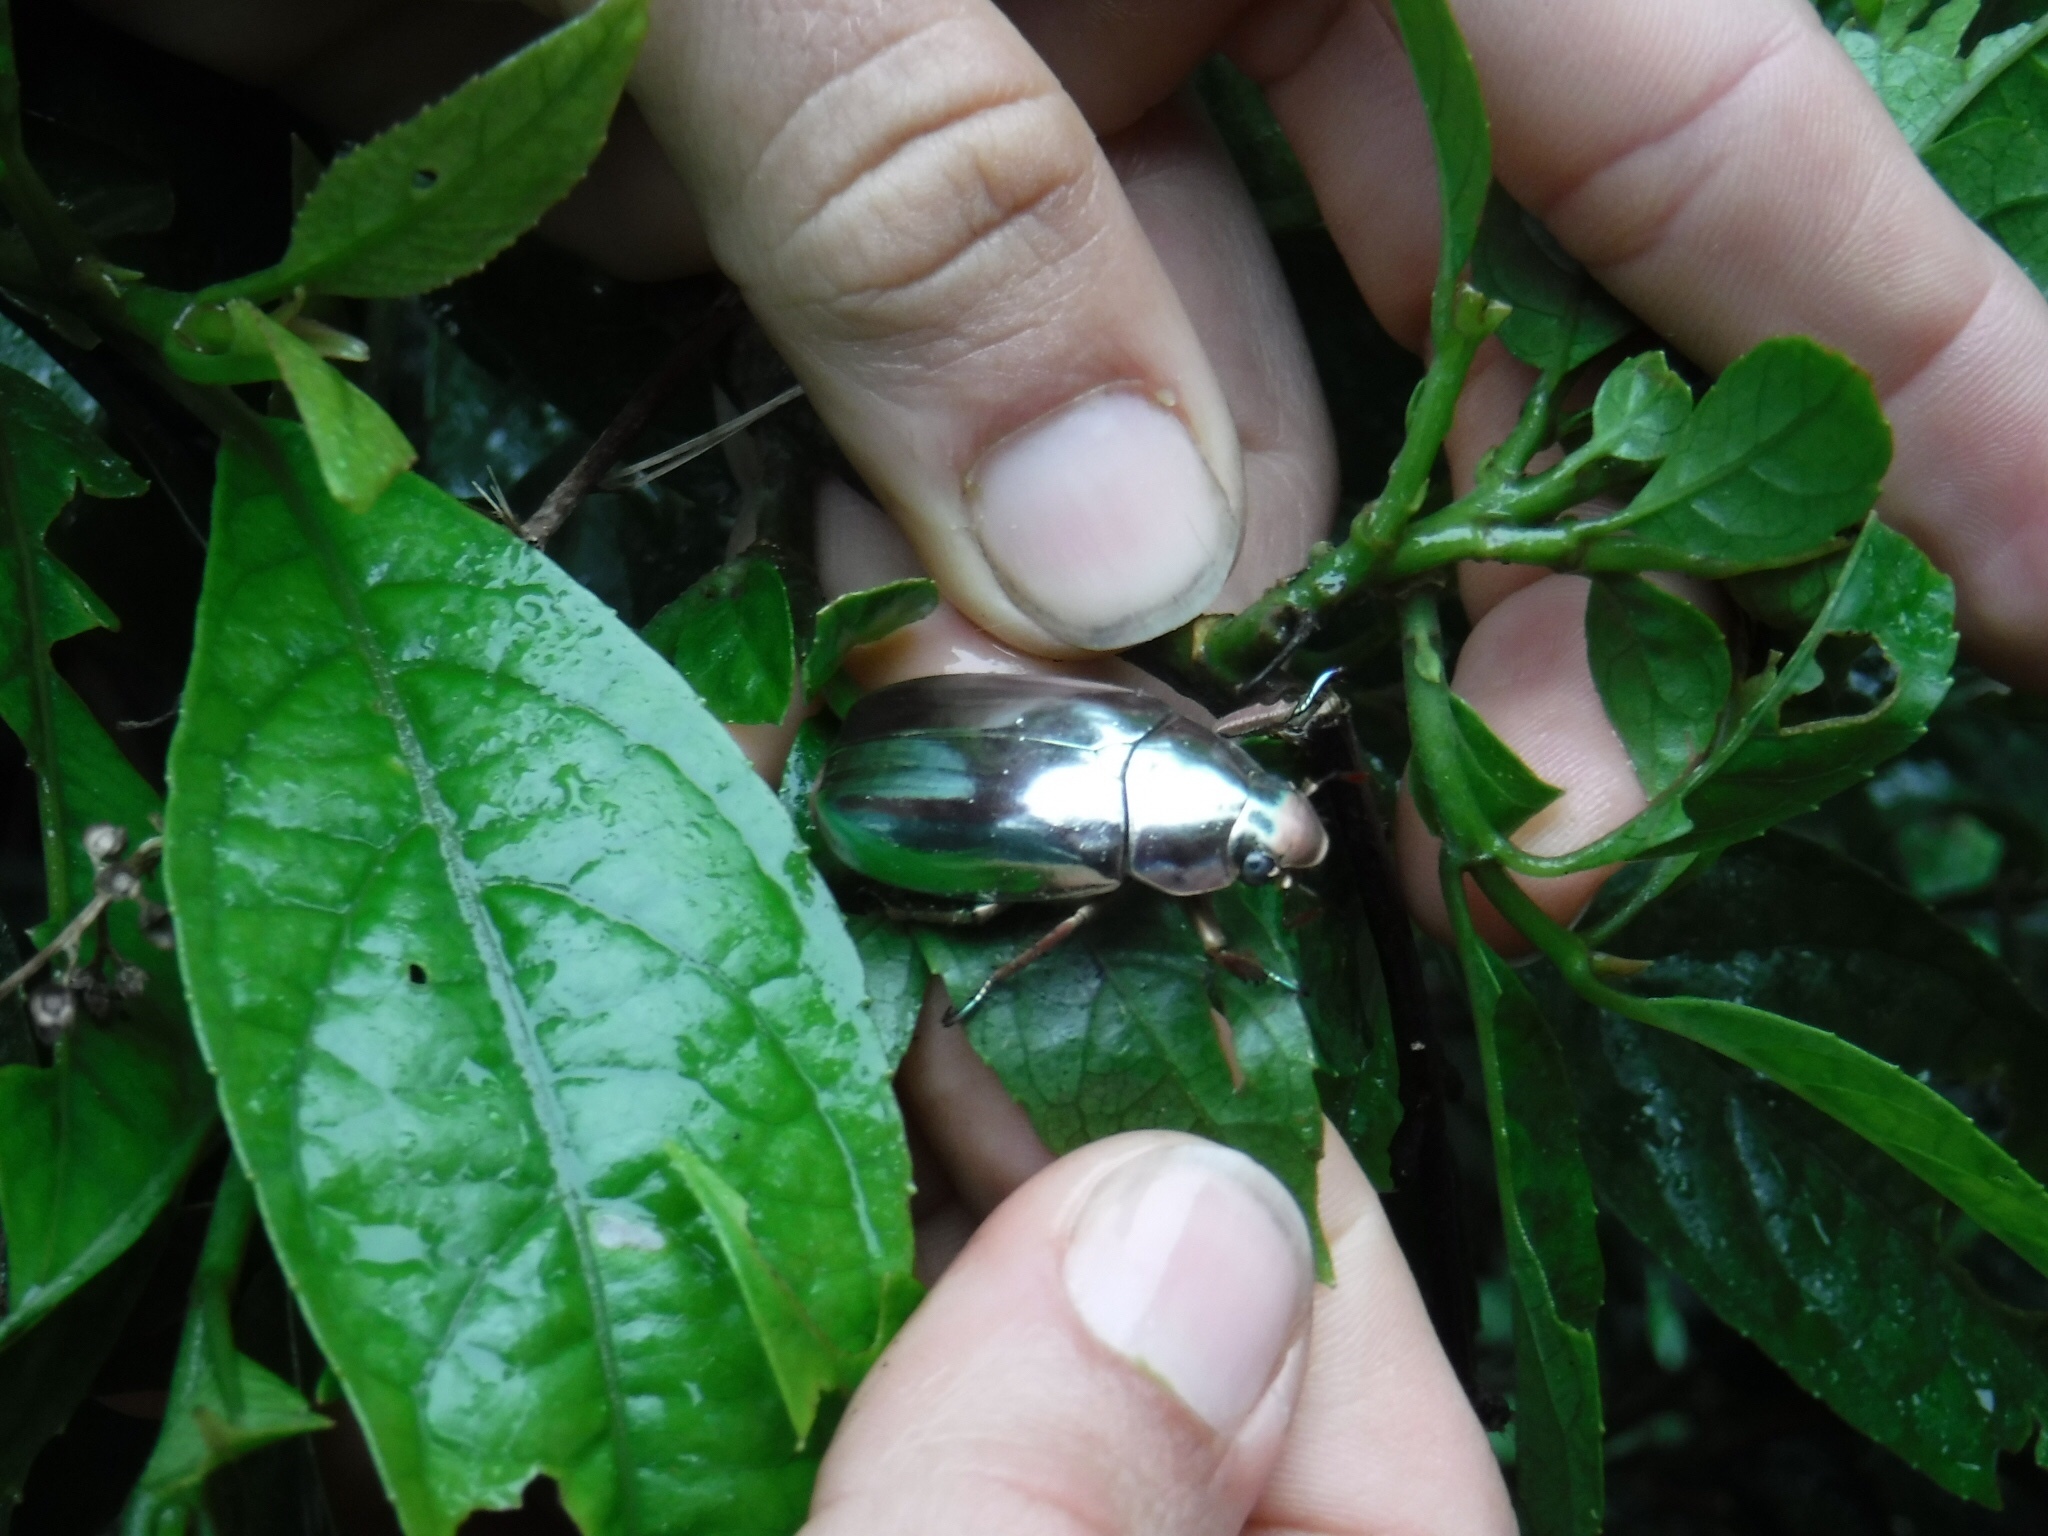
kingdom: Animalia
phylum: Arthropoda
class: Insecta
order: Coleoptera
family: Scarabaeidae
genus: Chrysina
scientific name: Chrysina chrysargyrea
